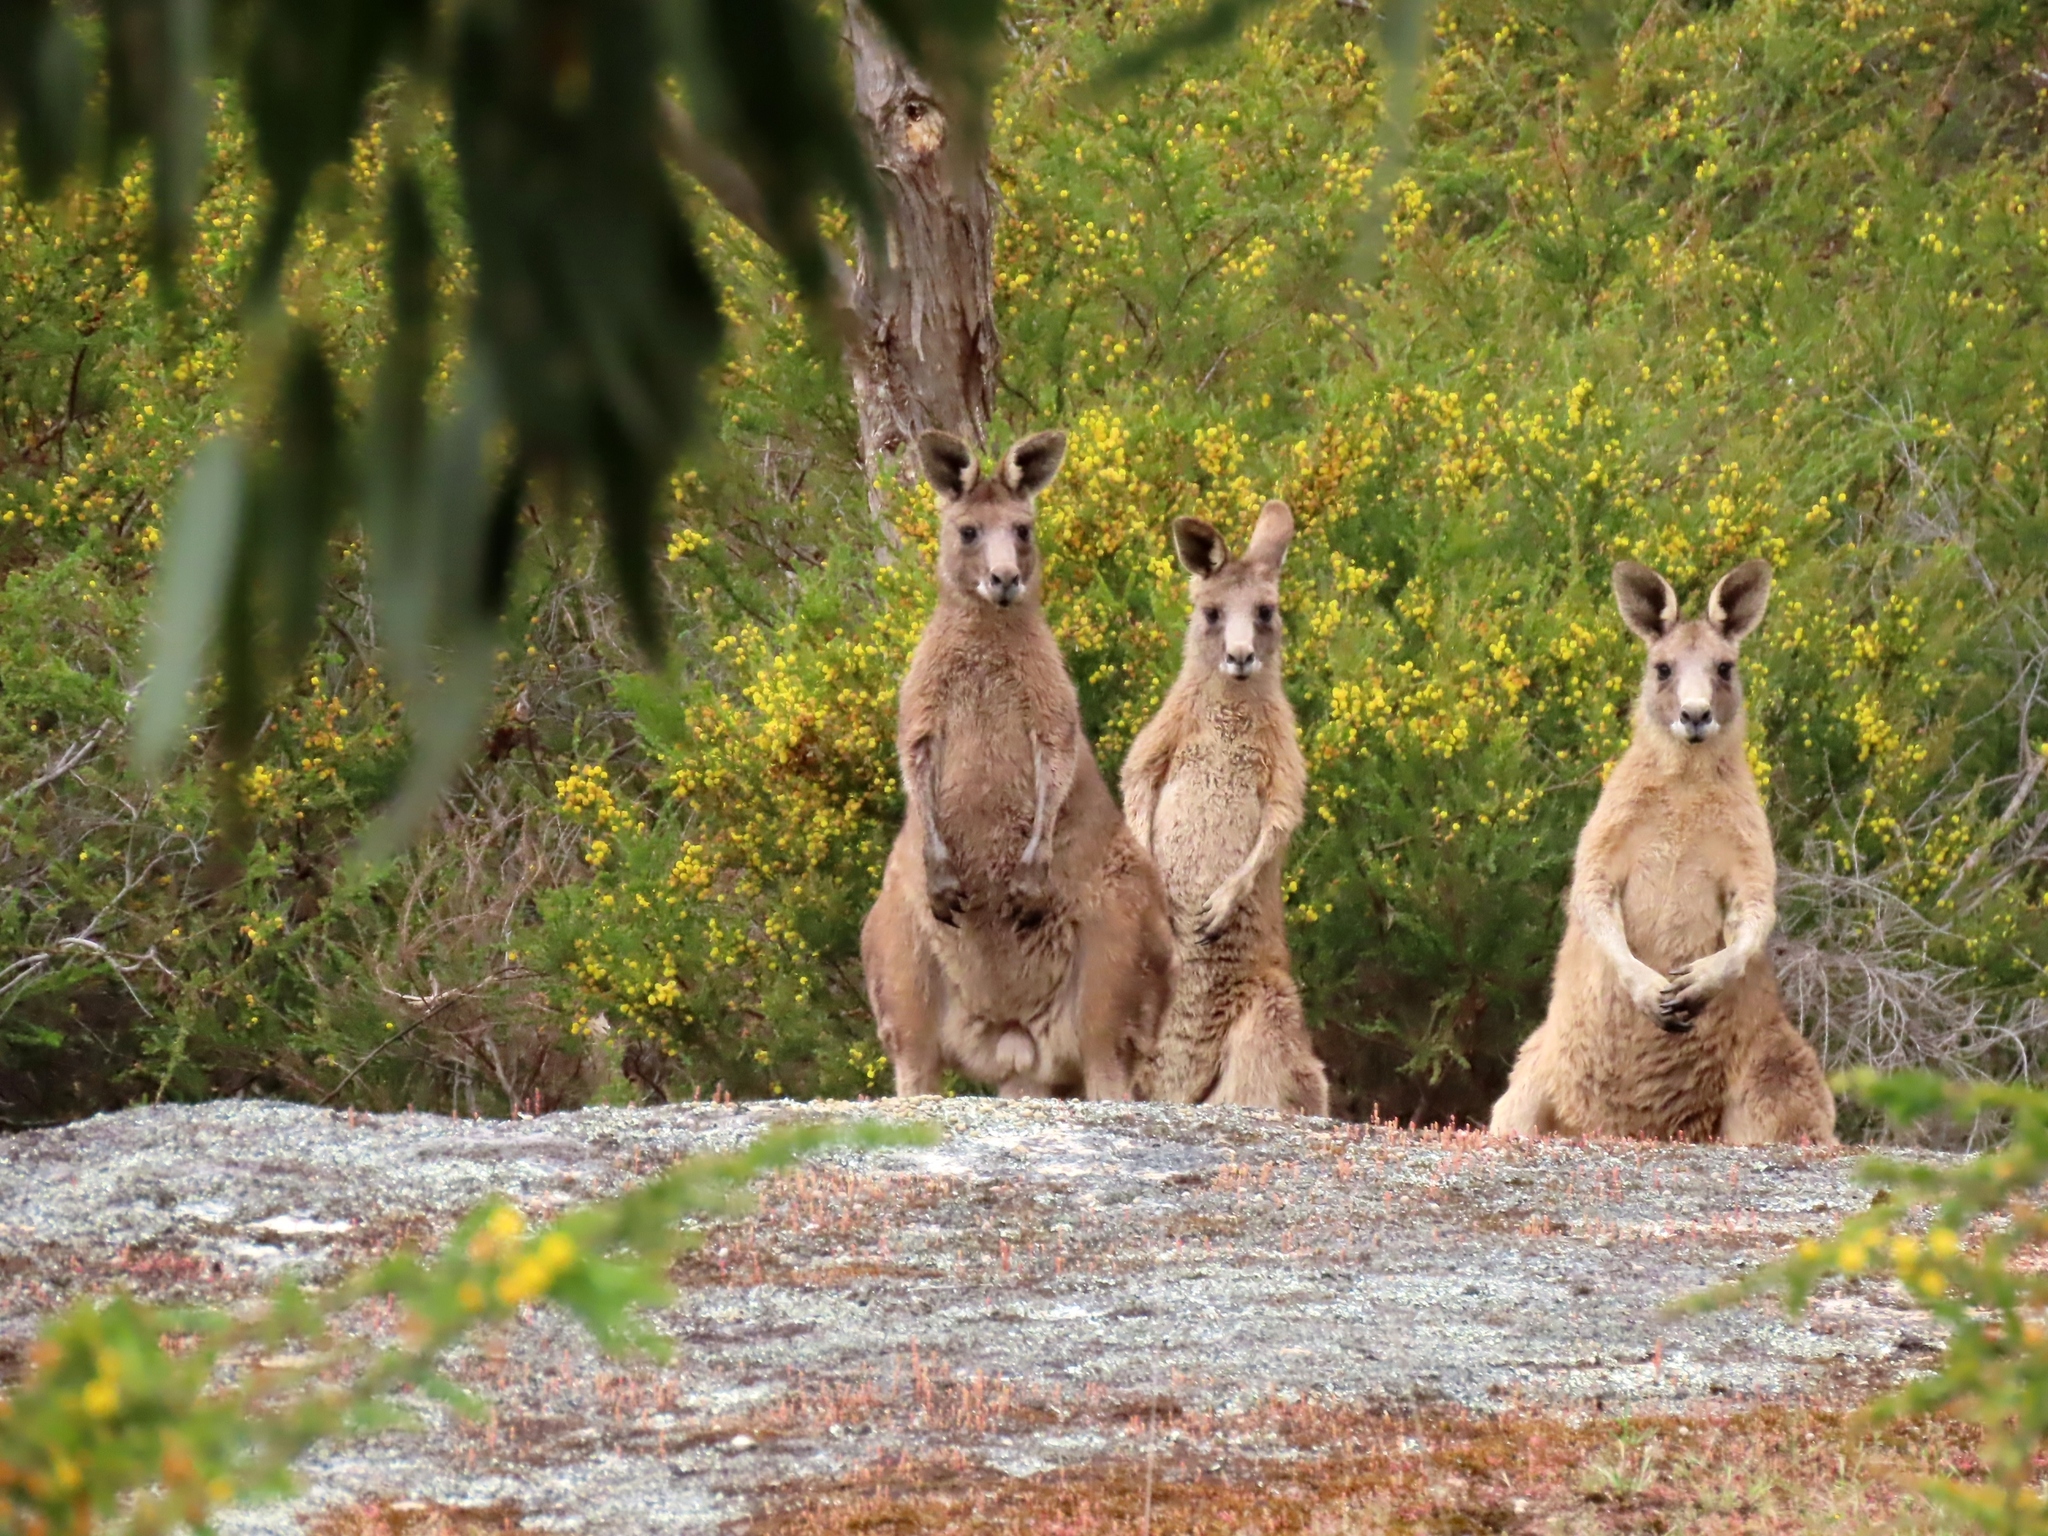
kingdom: Animalia
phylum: Chordata
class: Mammalia
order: Diprotodontia
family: Macropodidae
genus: Macropus
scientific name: Macropus giganteus
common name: Eastern grey kangaroo
